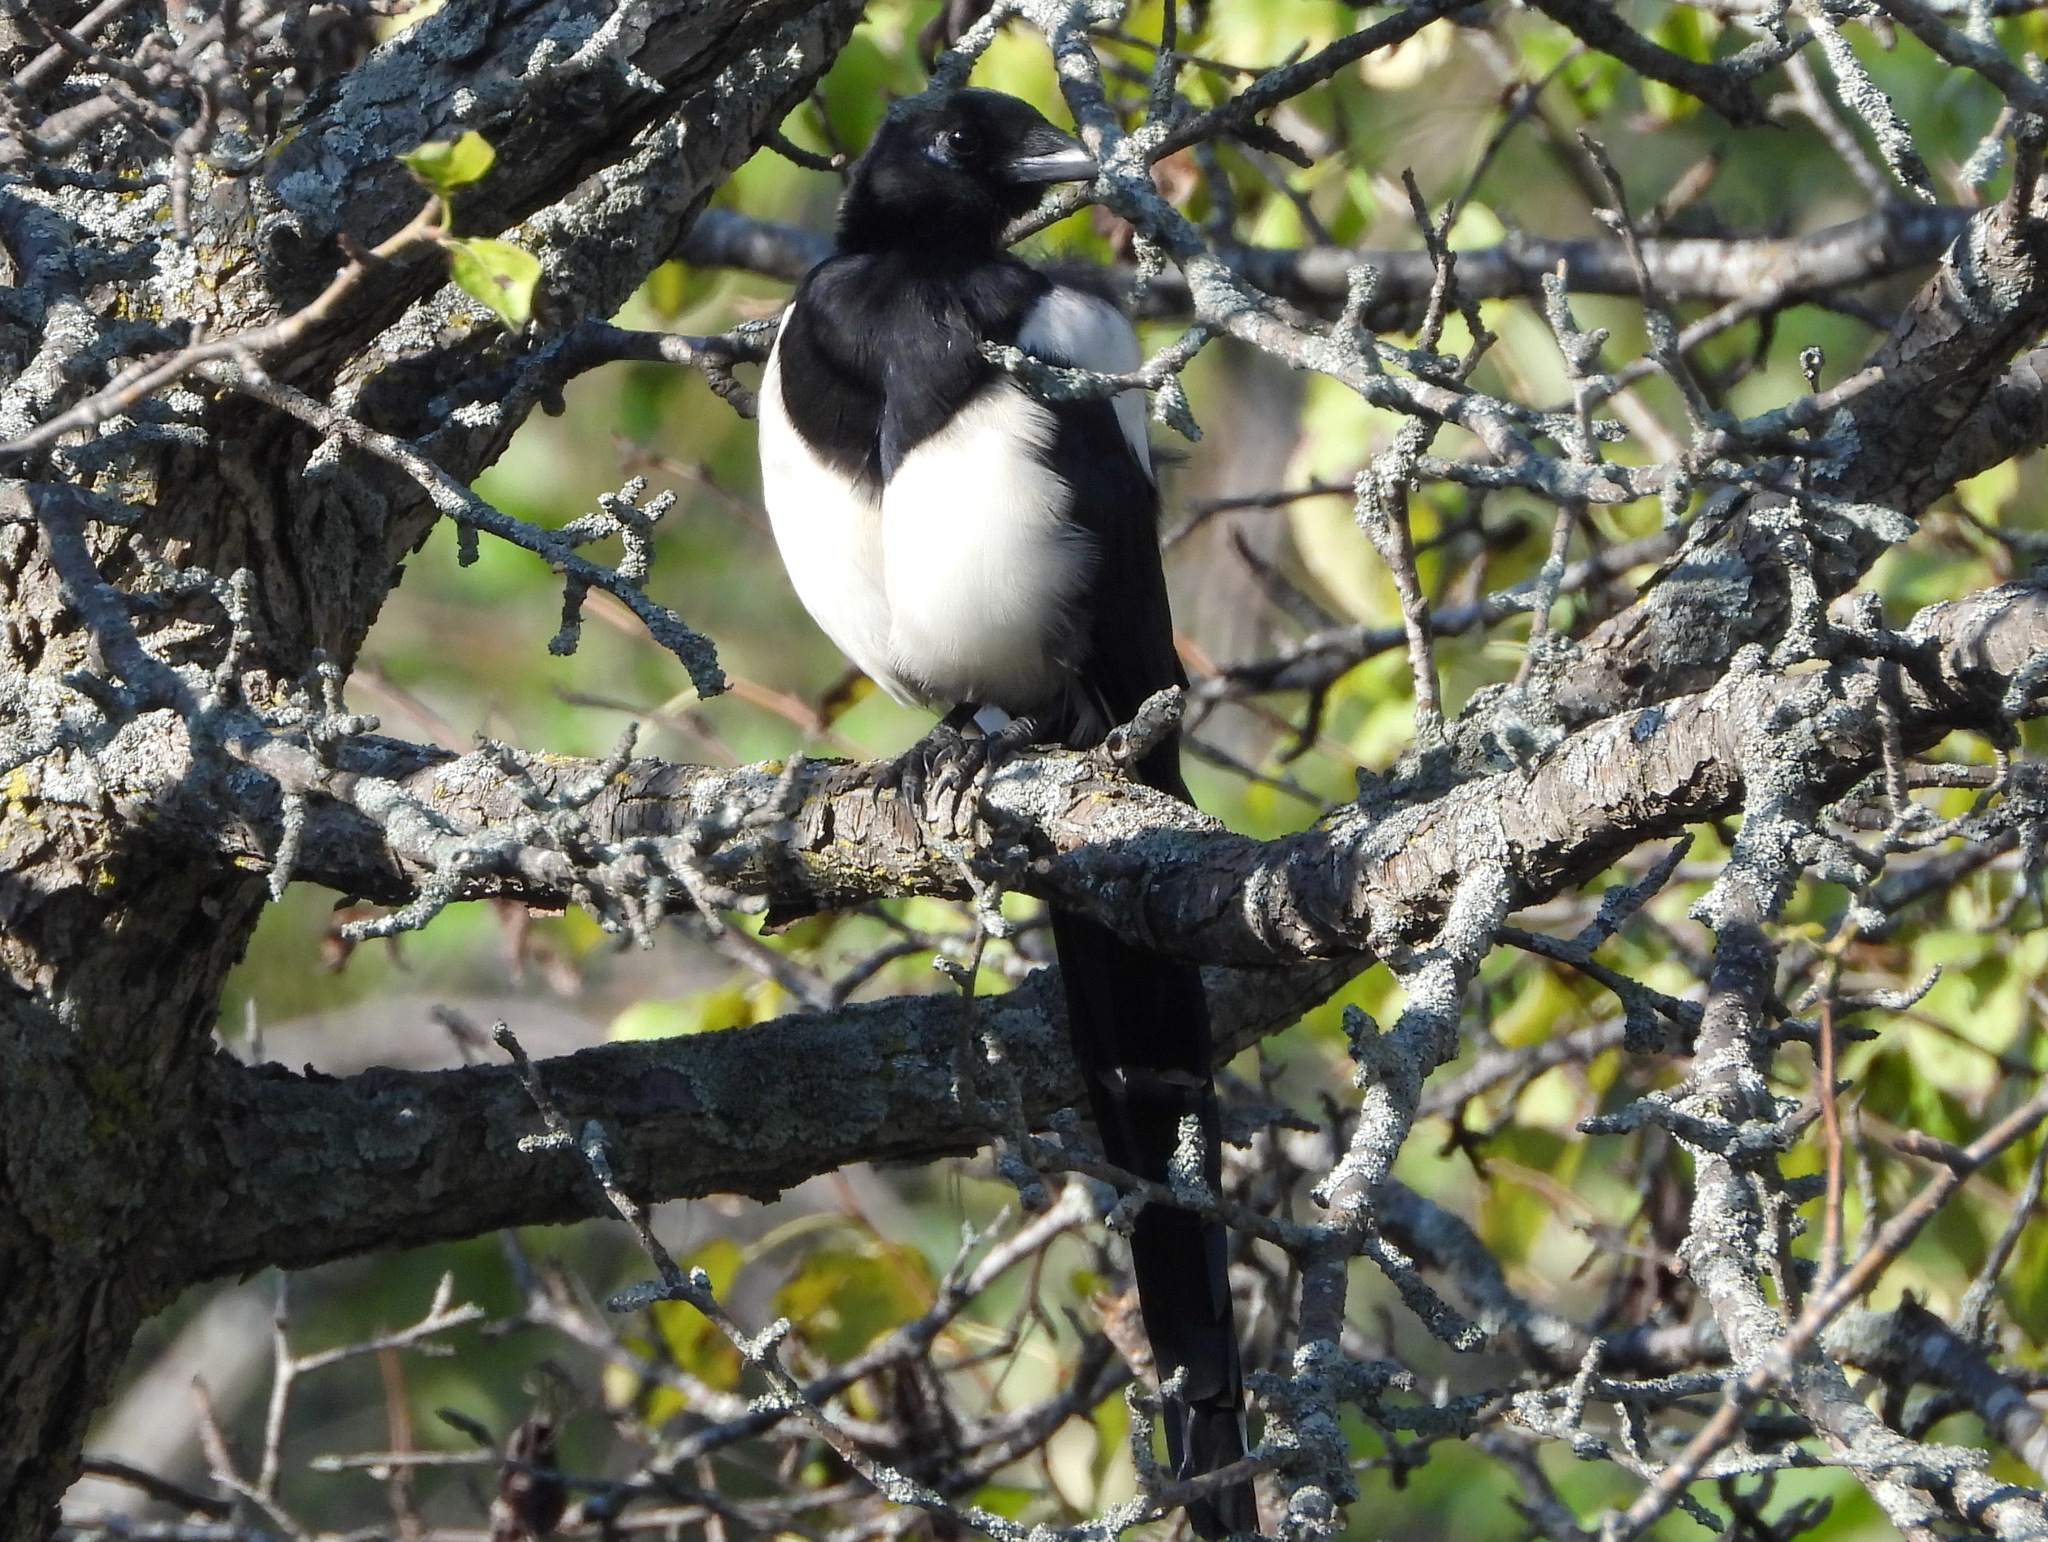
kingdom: Animalia
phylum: Chordata
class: Aves
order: Passeriformes
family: Corvidae
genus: Pica
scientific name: Pica serica
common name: Oriental magpie
